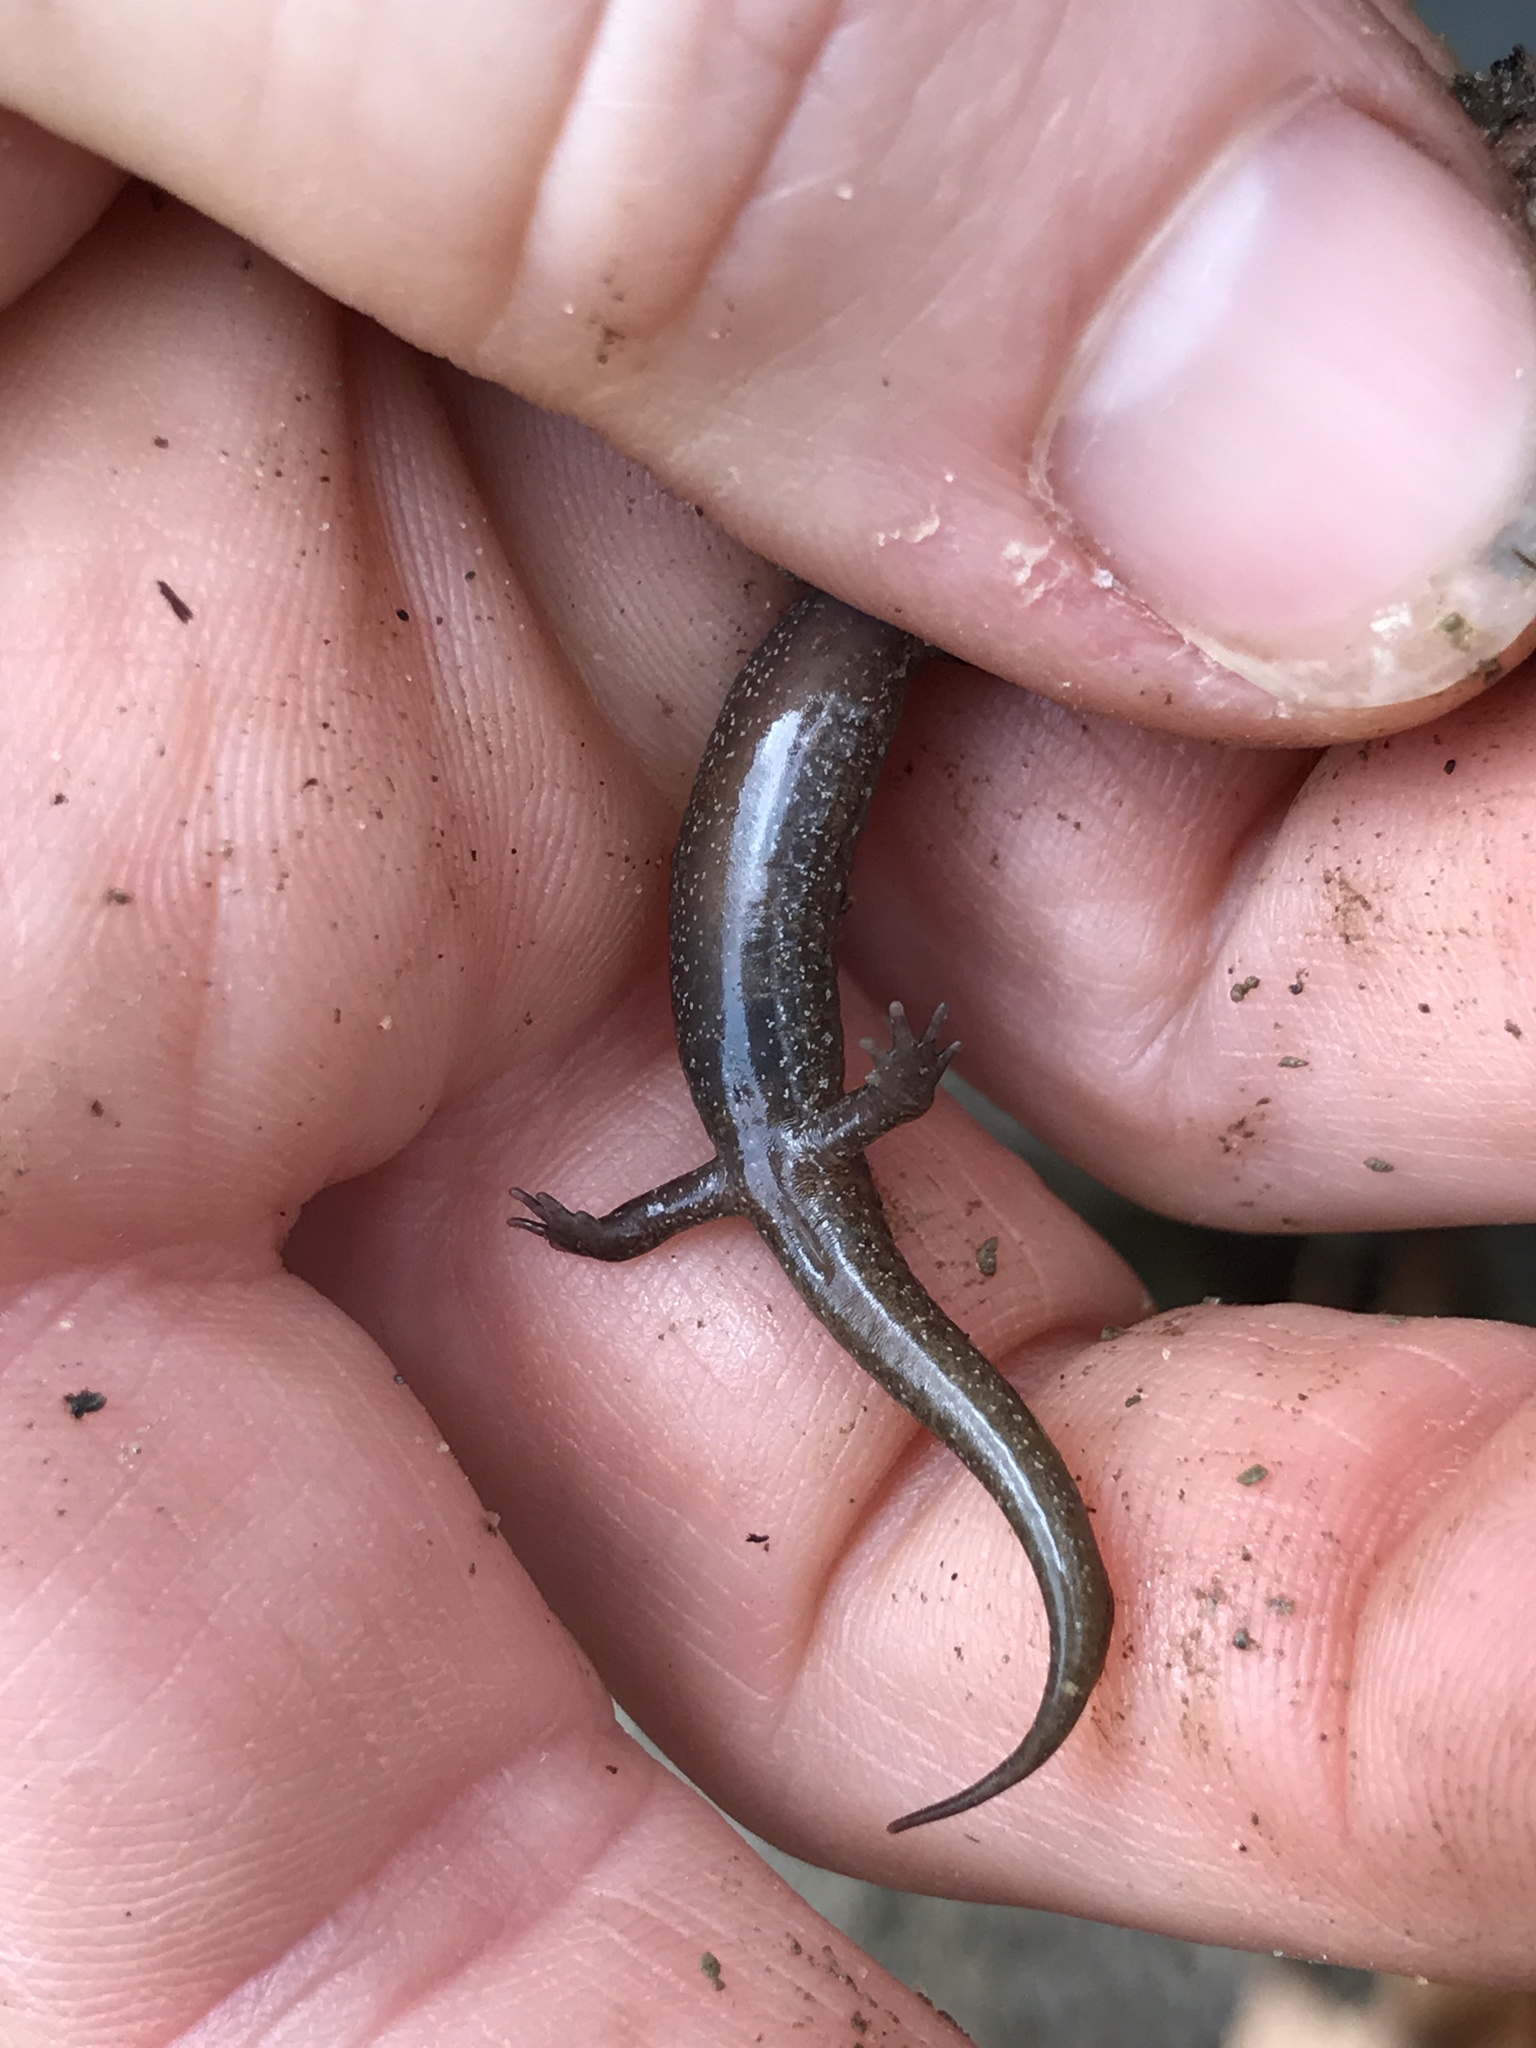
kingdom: Animalia
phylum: Chordata
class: Amphibia
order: Caudata
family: Plethodontidae
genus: Desmognathus
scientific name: Desmognathus fuscus
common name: Northern dusky salamander
